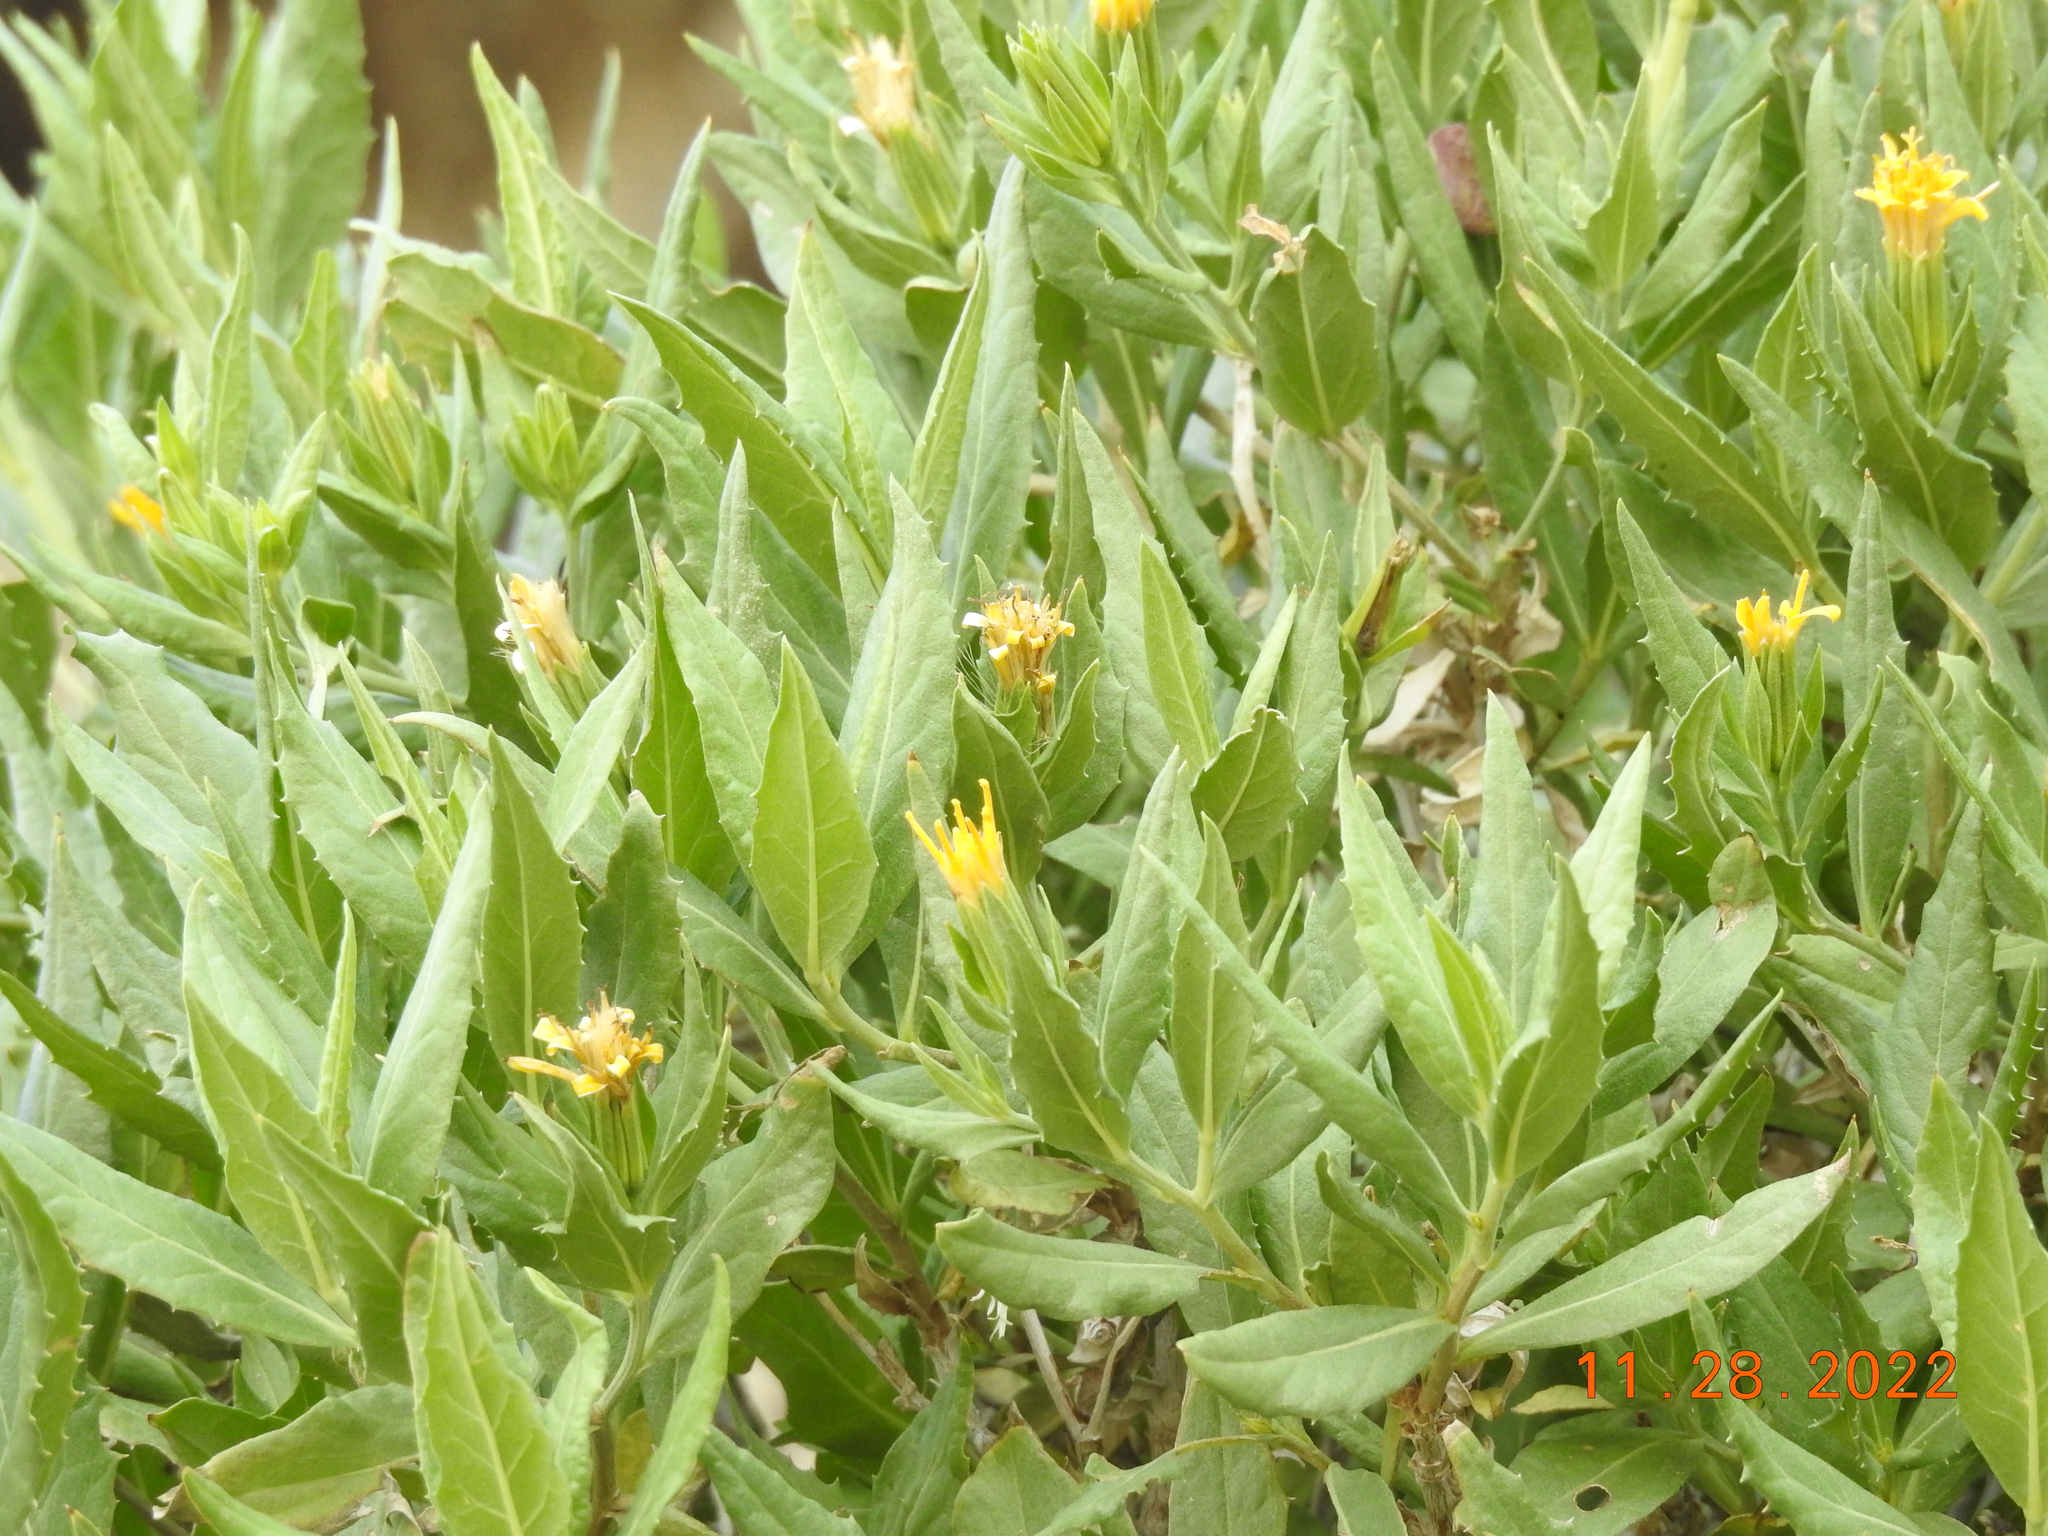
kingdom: Plantae
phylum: Tracheophyta
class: Magnoliopsida
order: Asterales
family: Asteraceae
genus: Trixis
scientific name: Trixis californica
